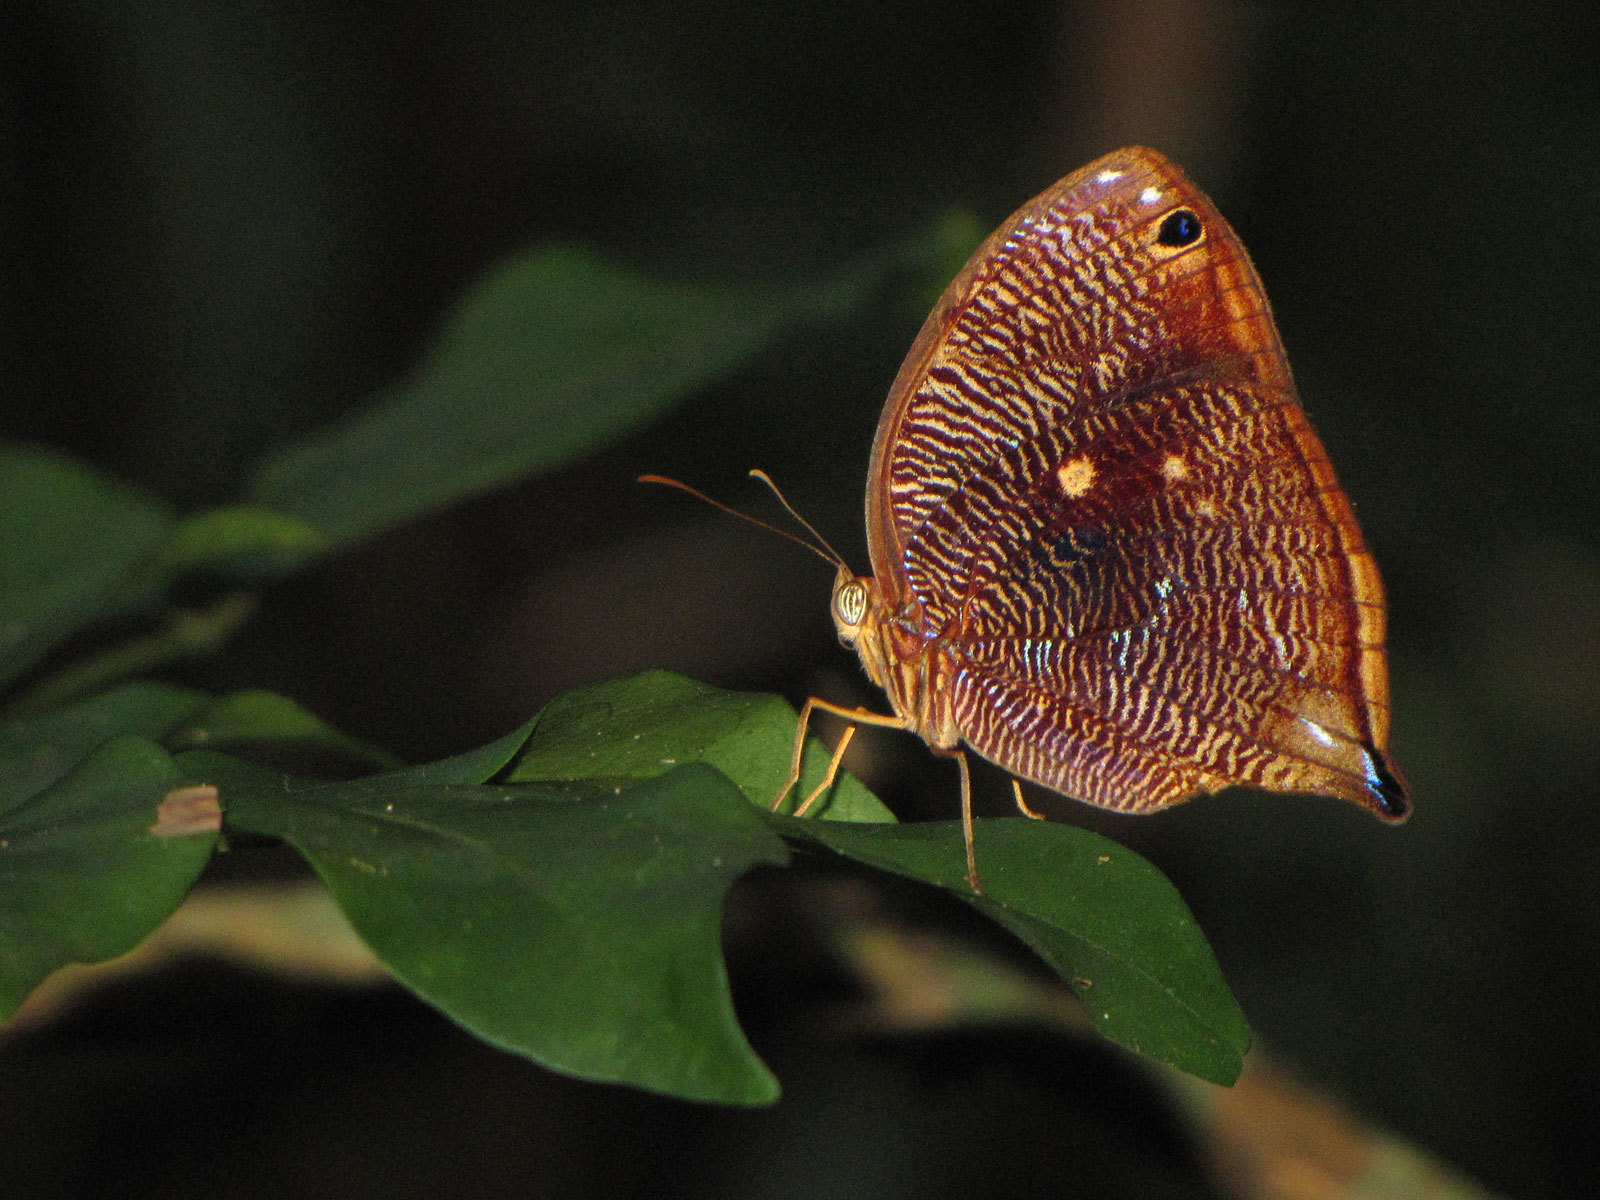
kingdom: Animalia
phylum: Arthropoda
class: Insecta
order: Lepidoptera
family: Nymphalidae
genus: Bia
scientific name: Bia actorion
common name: Uncertain owlet
